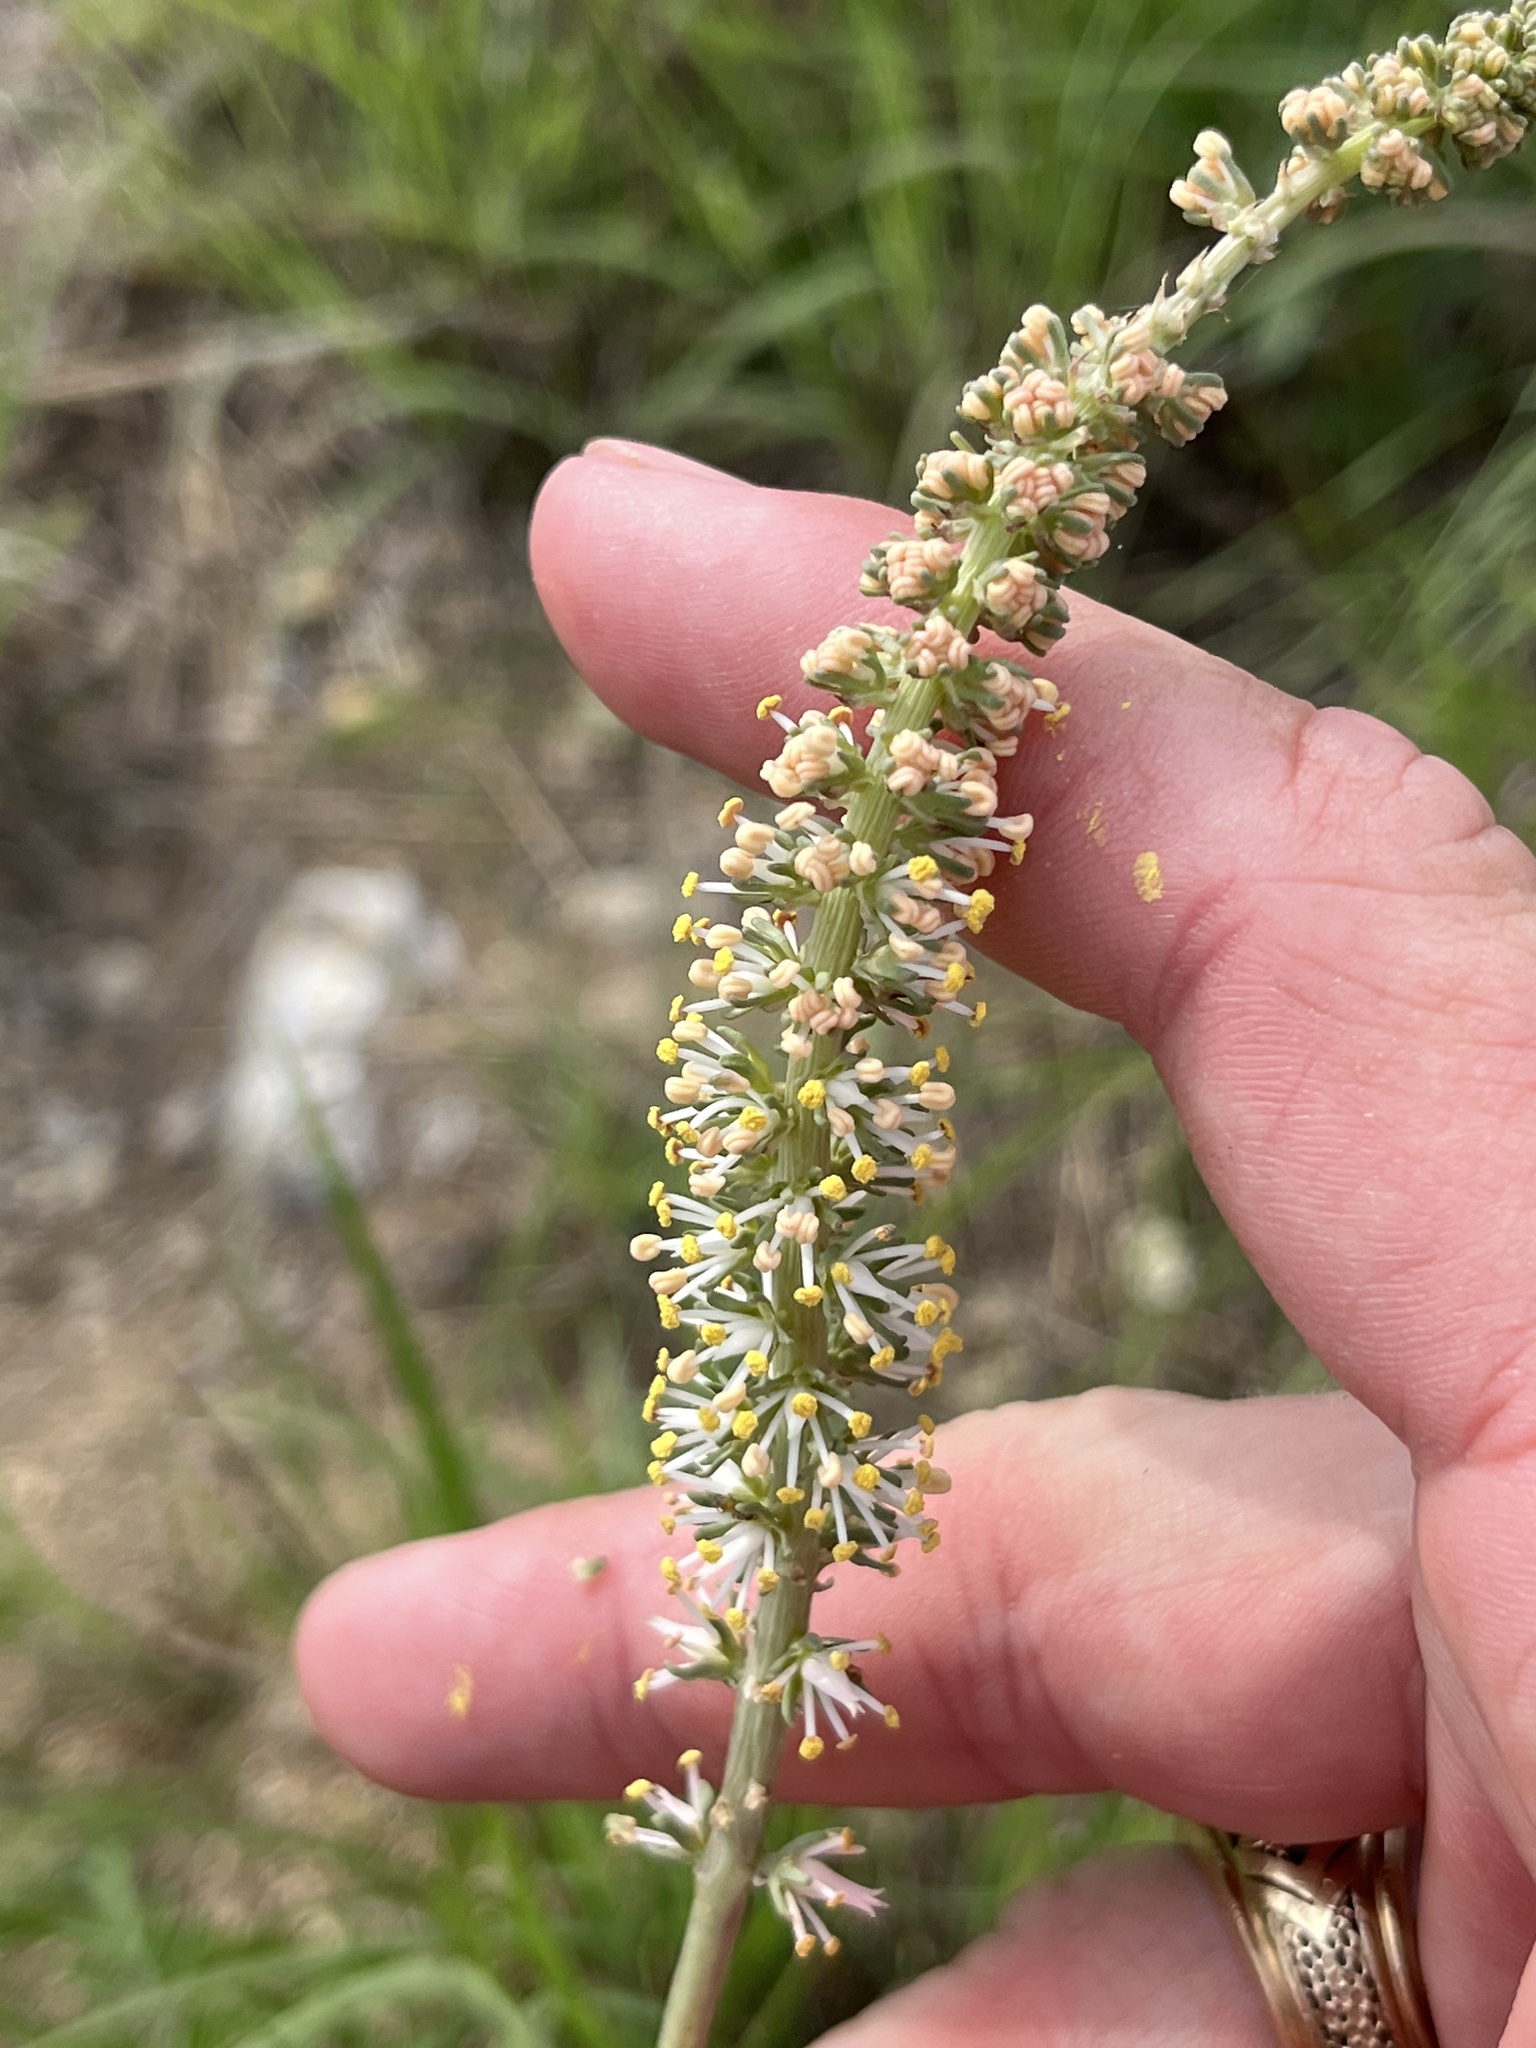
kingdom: Plantae
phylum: Tracheophyta
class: Liliopsida
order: Liliales
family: Melanthiaceae
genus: Schoenocaulon
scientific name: Schoenocaulon texanum
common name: Texas feather-shank
